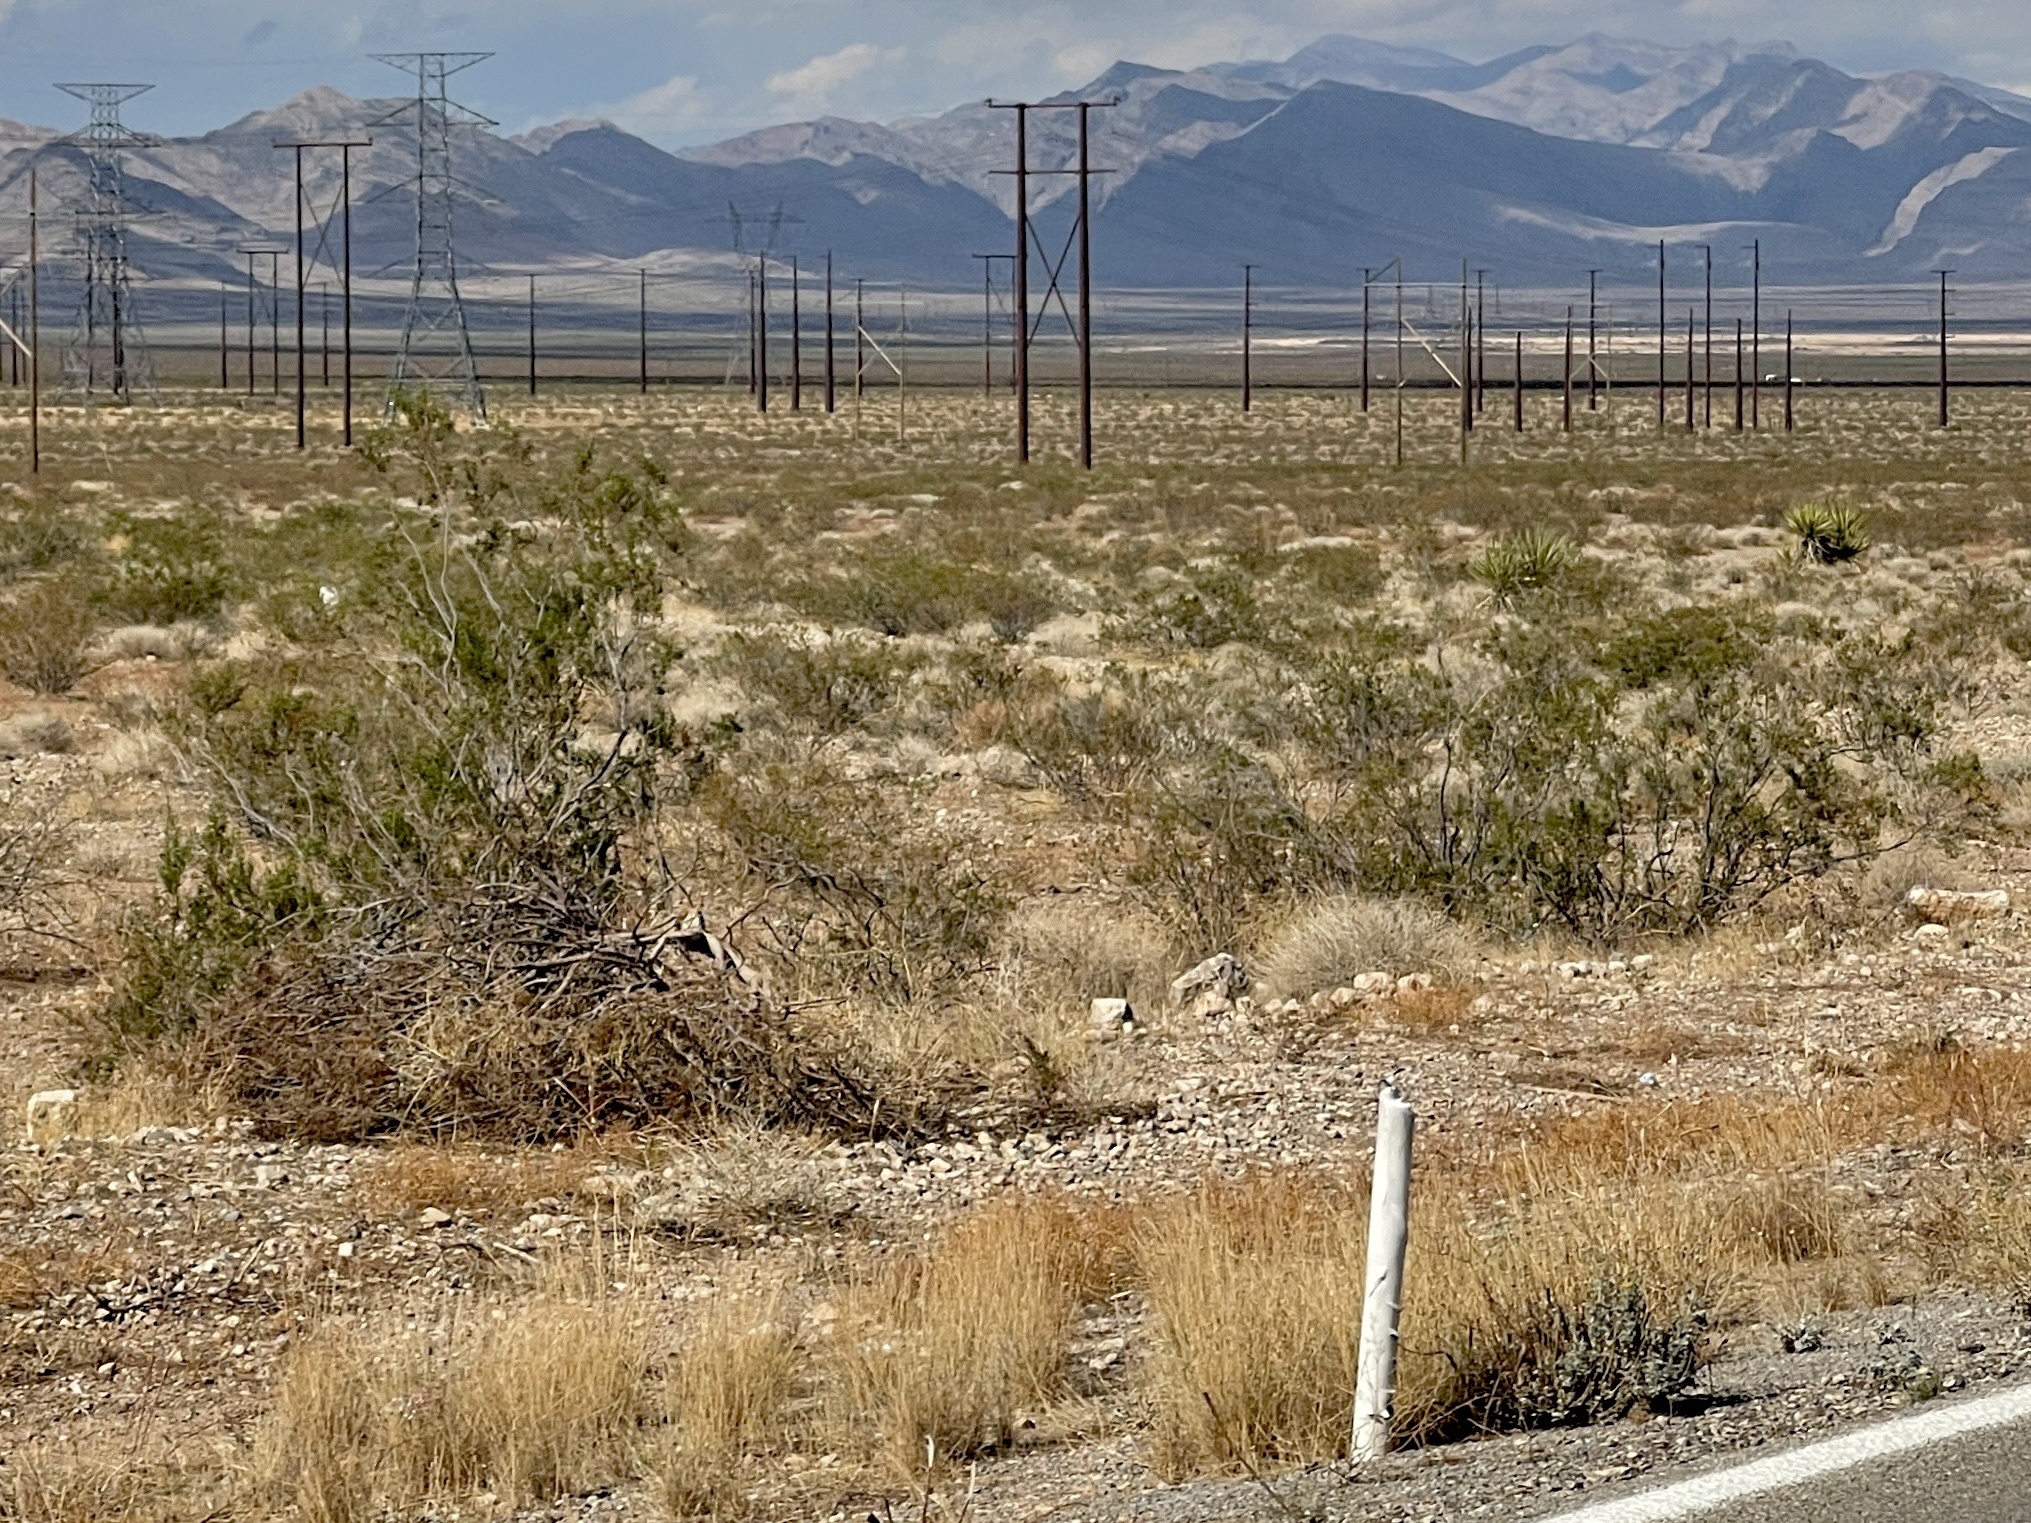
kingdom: Plantae
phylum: Tracheophyta
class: Magnoliopsida
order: Zygophyllales
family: Zygophyllaceae
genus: Larrea
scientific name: Larrea tridentata
